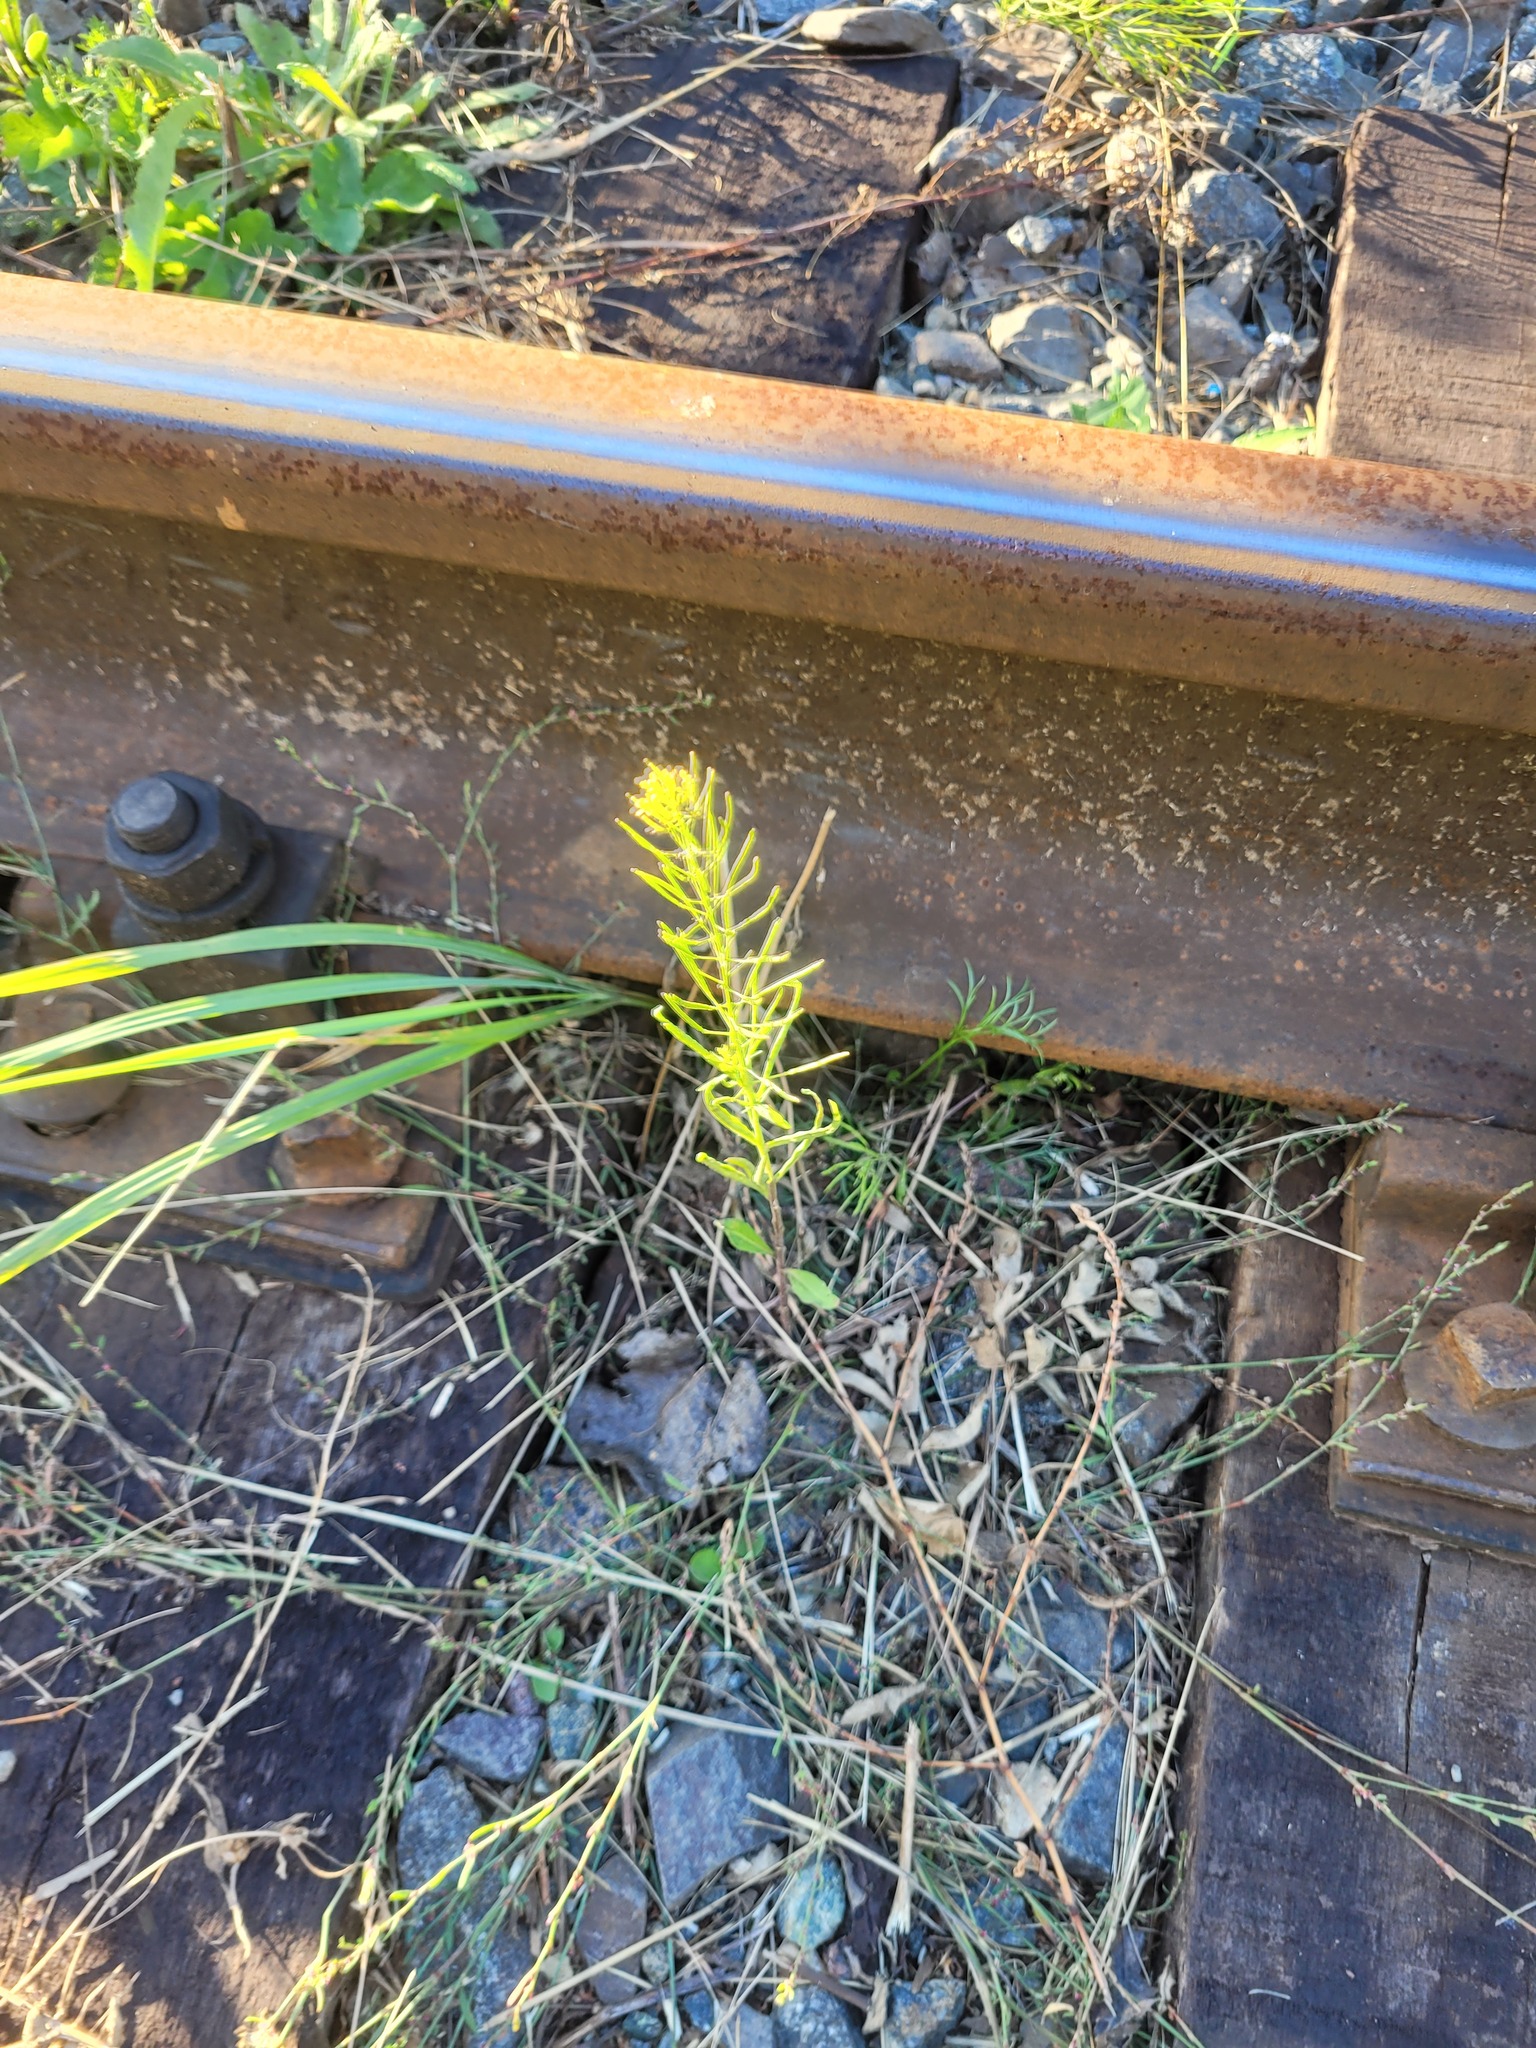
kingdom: Plantae
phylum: Tracheophyta
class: Magnoliopsida
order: Brassicales
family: Brassicaceae
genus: Erysimum
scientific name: Erysimum cheiranthoides
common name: Treacle mustard
